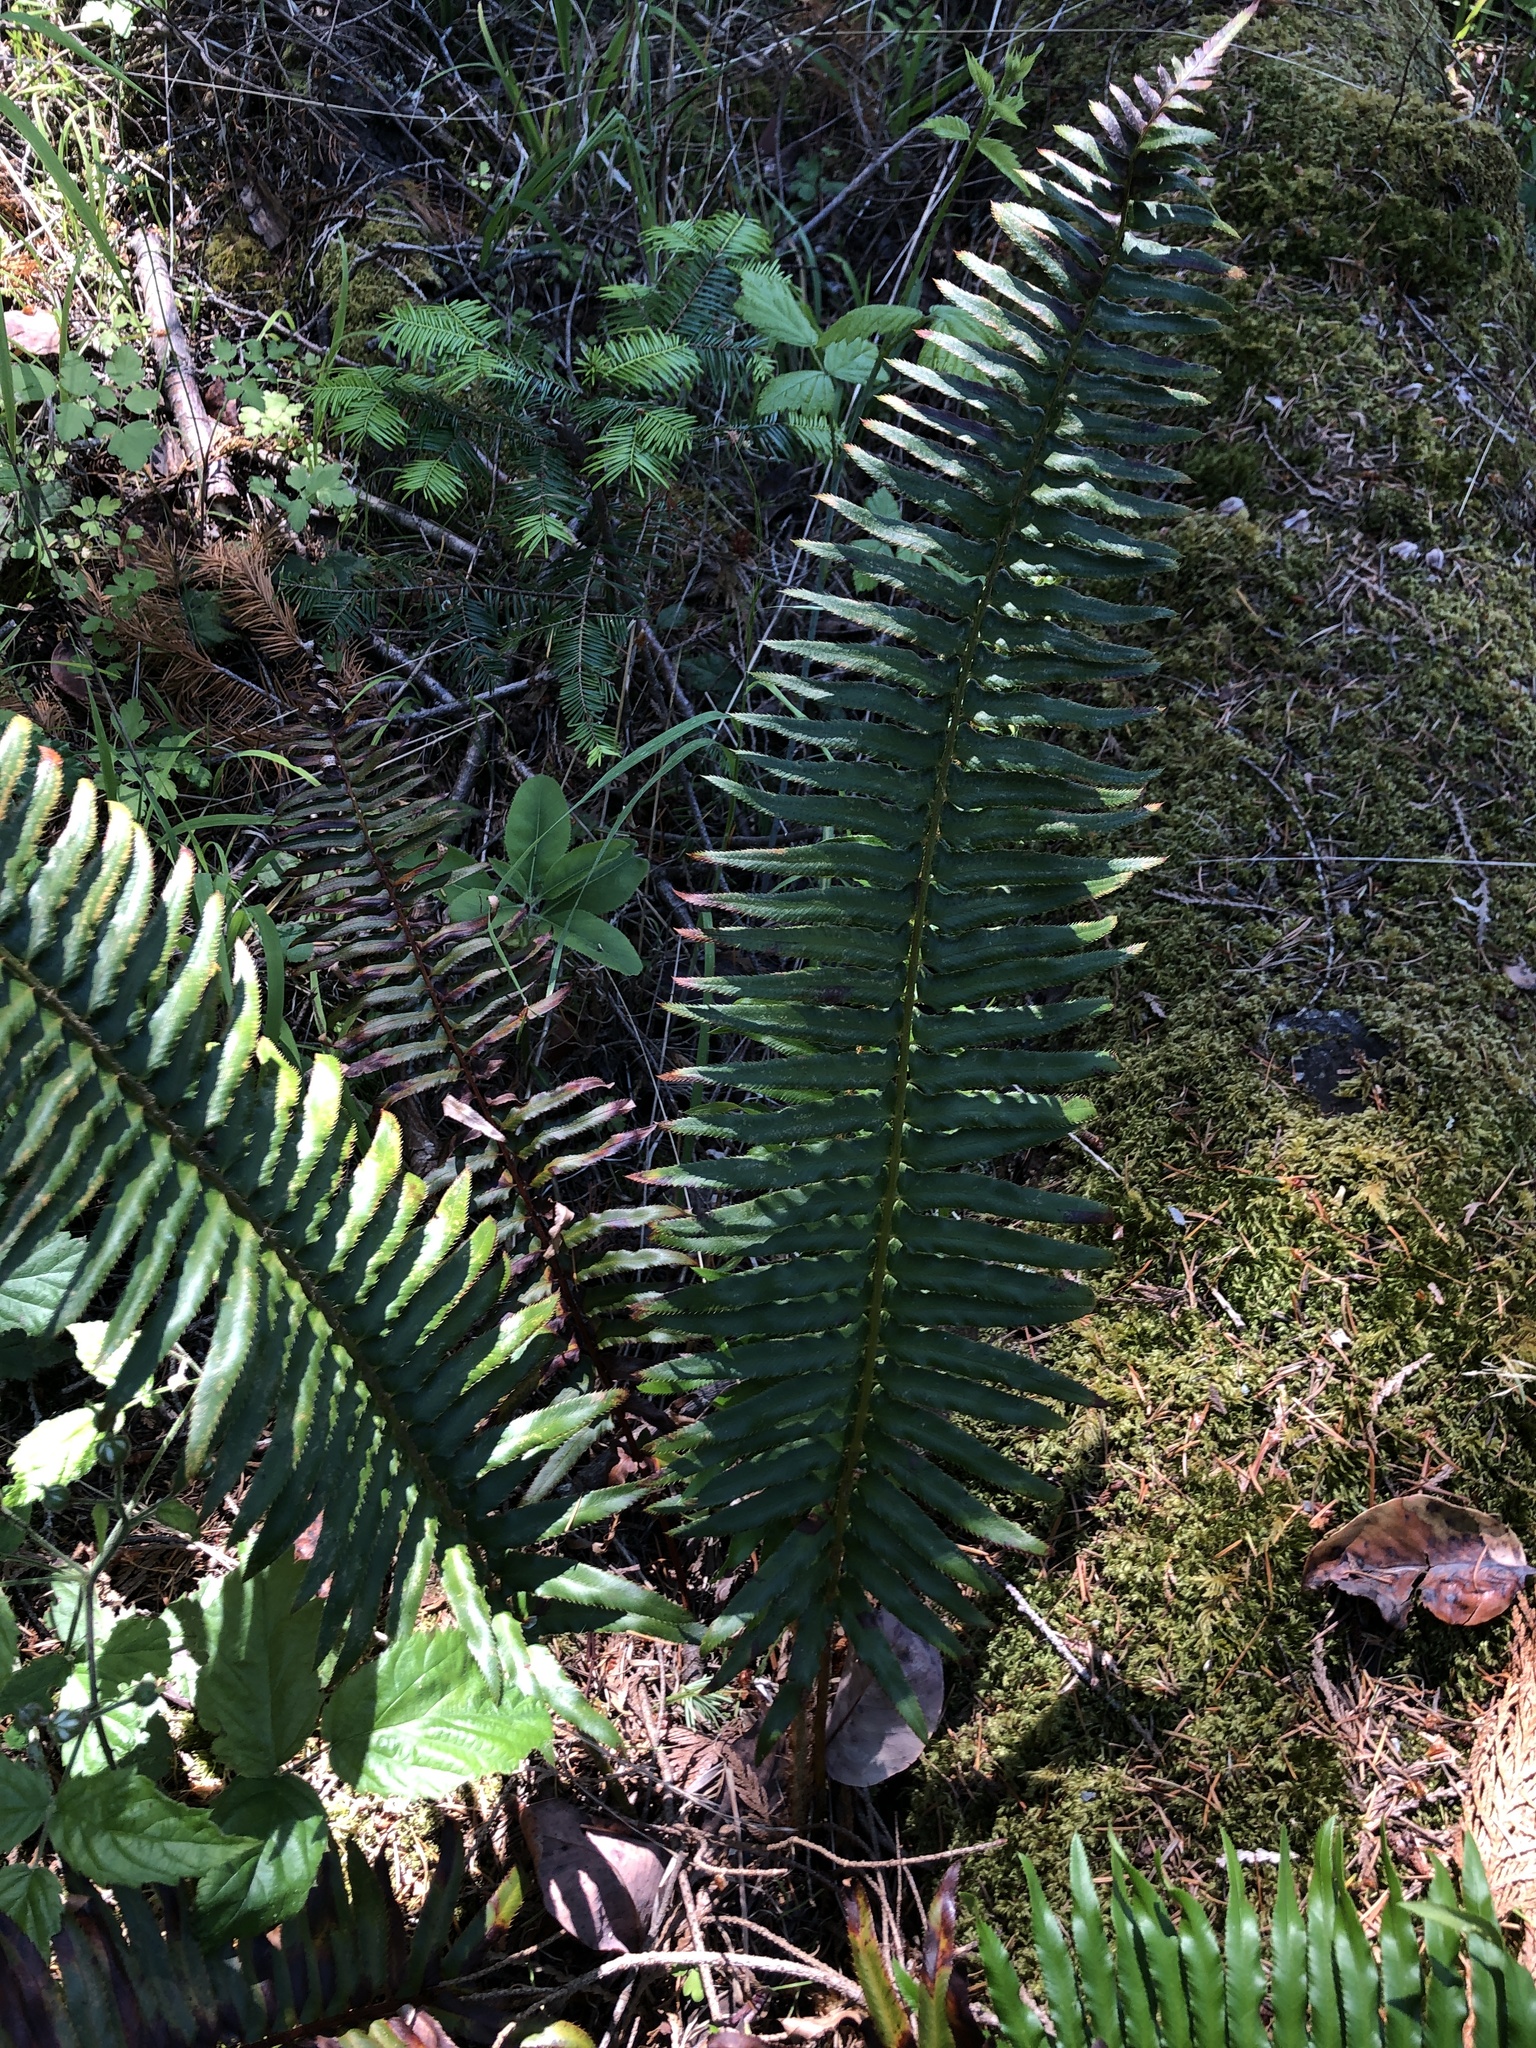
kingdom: Plantae
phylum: Tracheophyta
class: Polypodiopsida
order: Polypodiales
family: Dryopteridaceae
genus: Polystichum
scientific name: Polystichum munitum
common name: Western sword-fern
